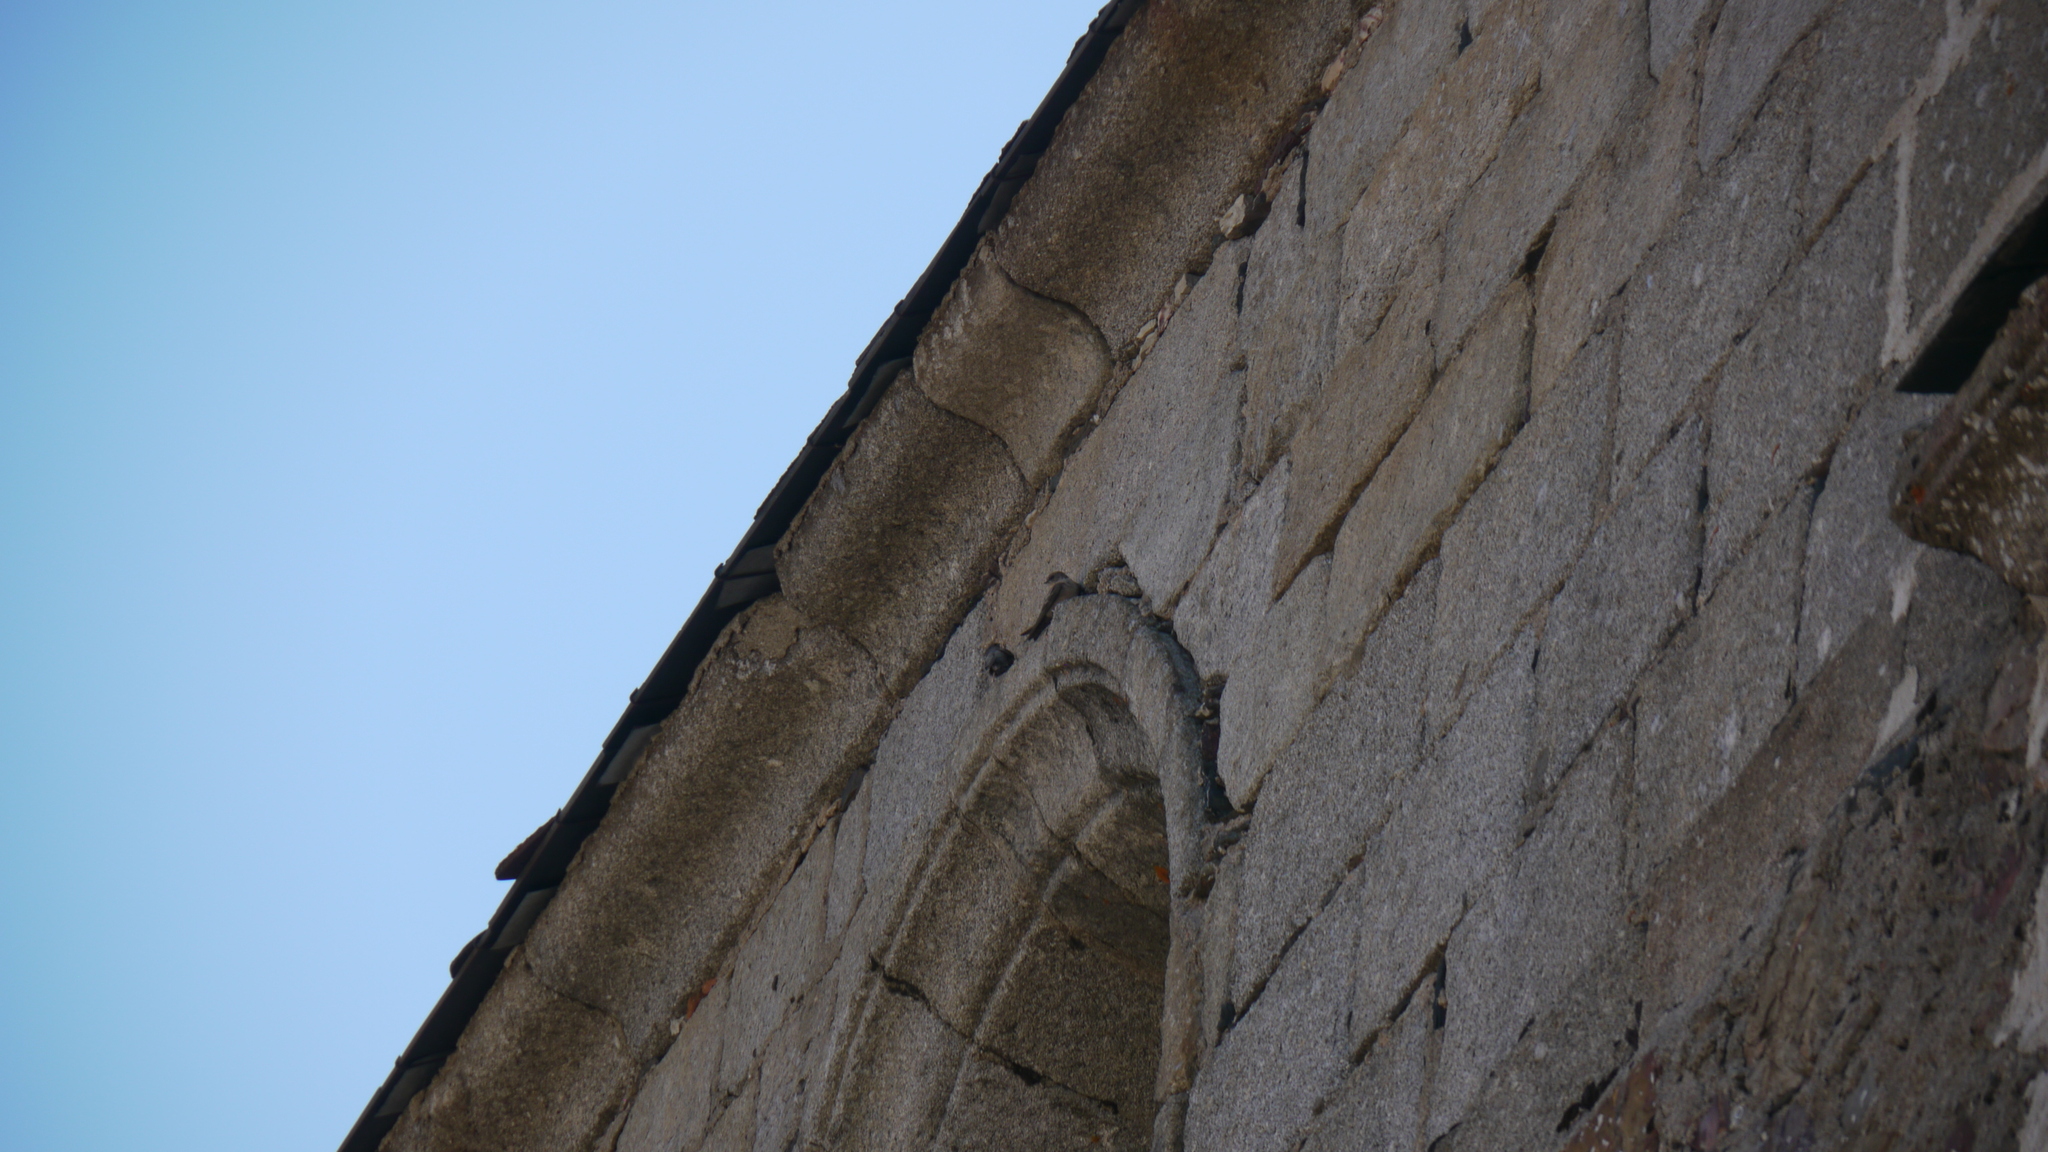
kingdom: Animalia
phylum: Chordata
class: Aves
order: Passeriformes
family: Hirundinidae
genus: Ptyonoprogne
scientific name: Ptyonoprogne rupestris
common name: Eurasian crag martin
